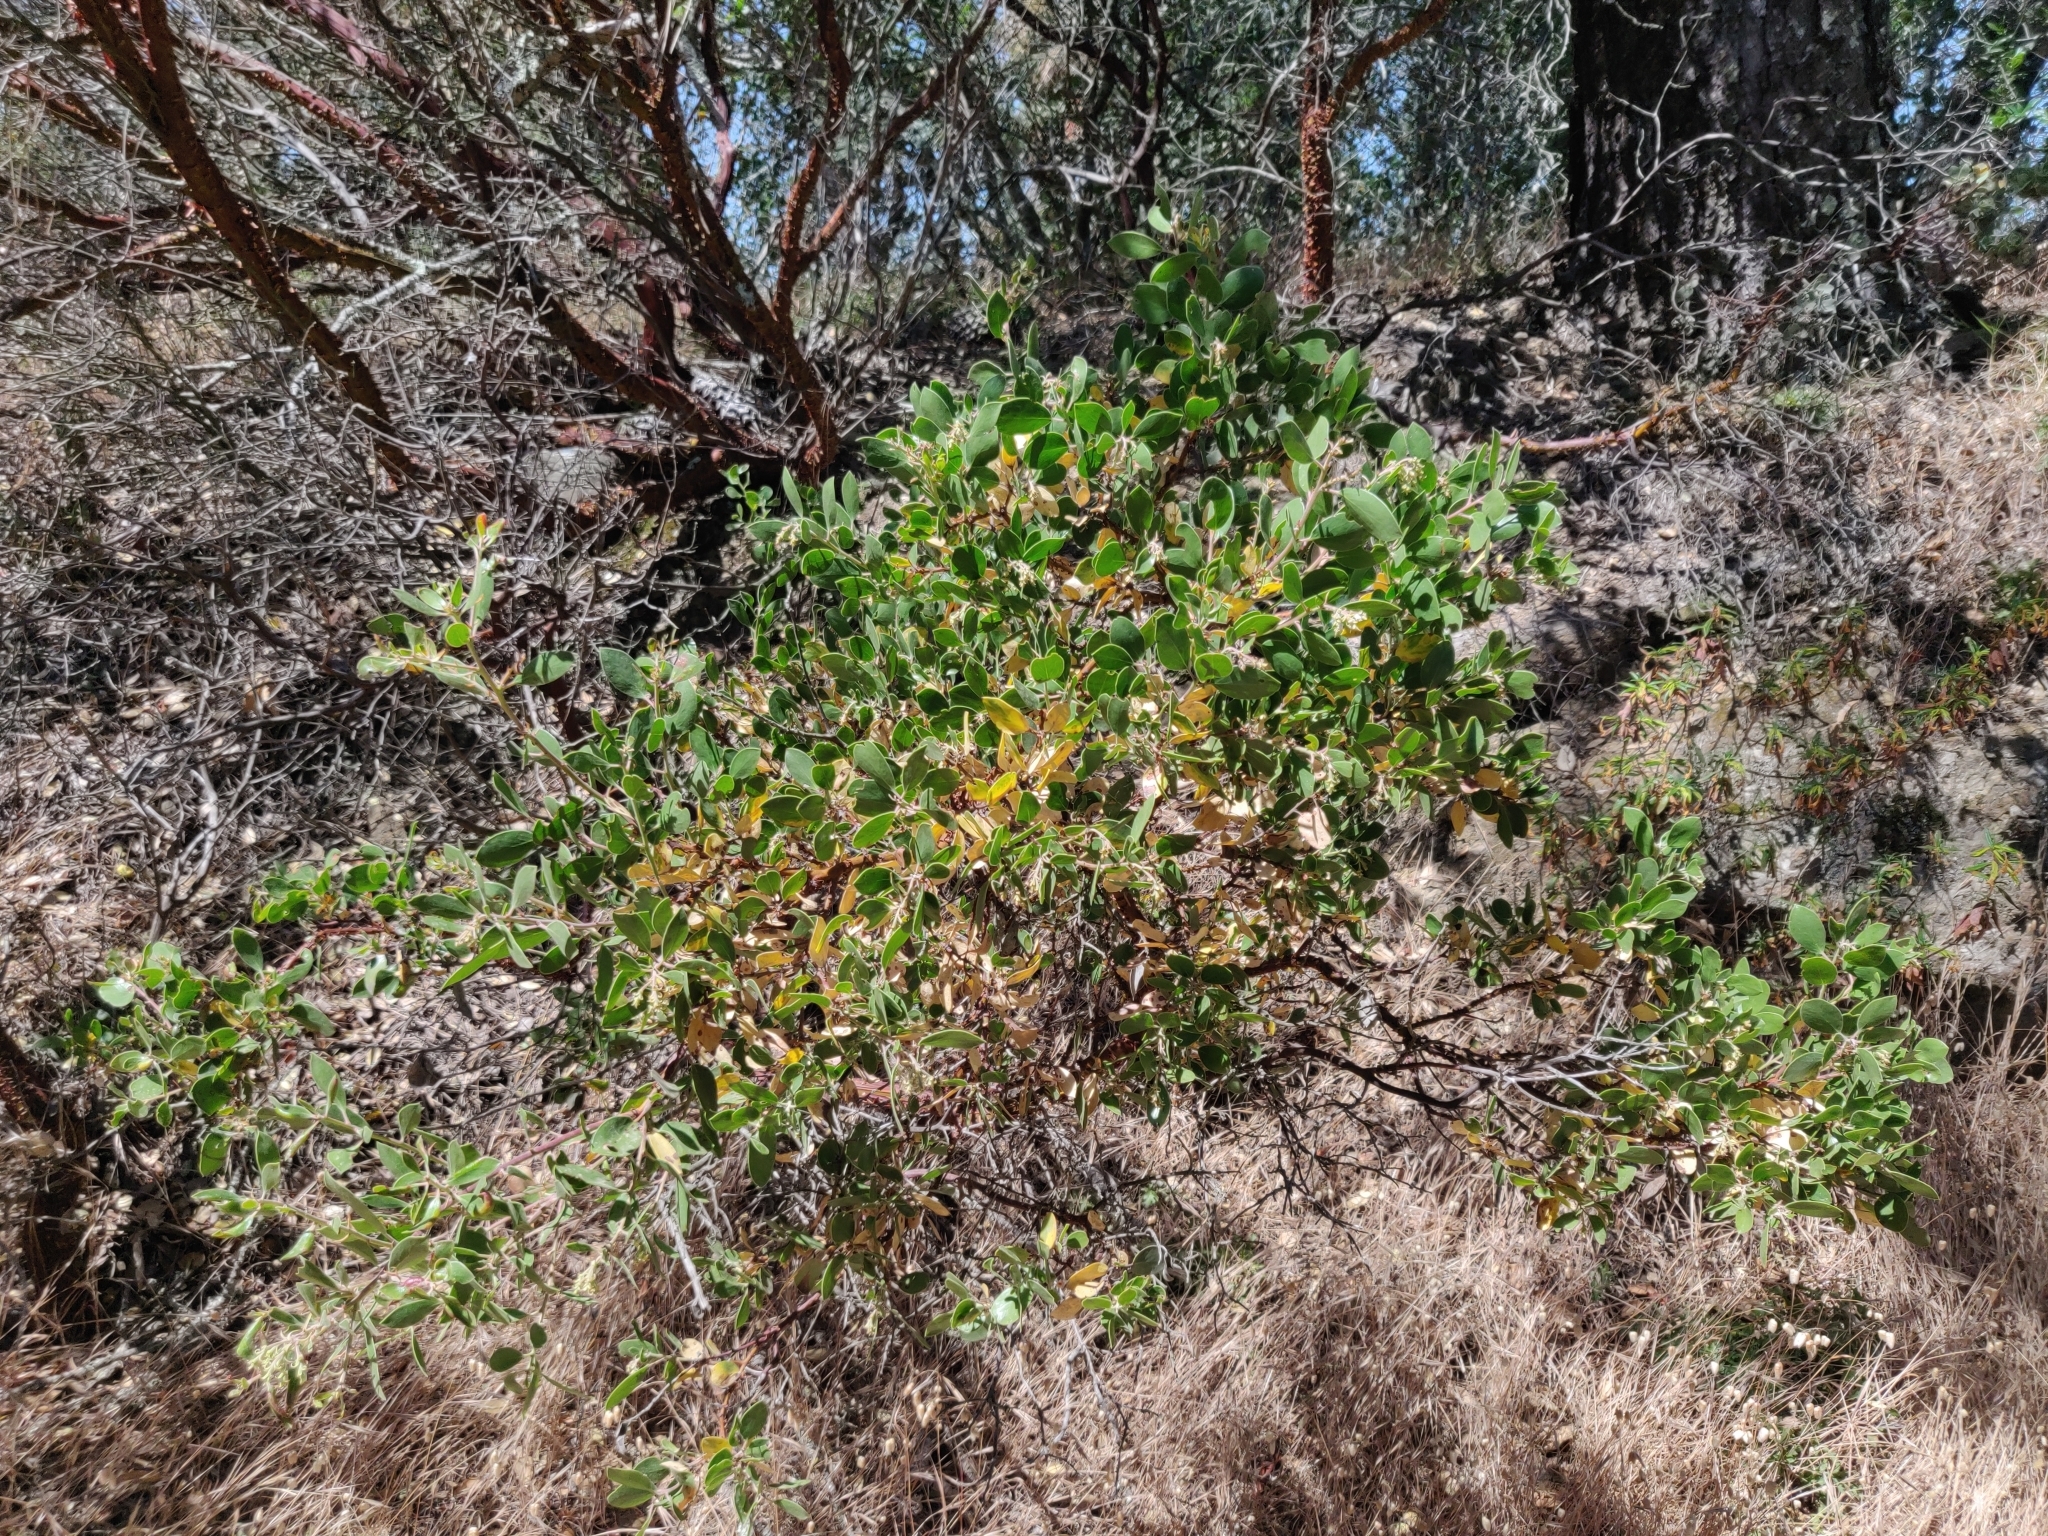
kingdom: Plantae
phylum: Tracheophyta
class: Magnoliopsida
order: Ericales
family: Ericaceae
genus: Arctostaphylos
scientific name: Arctostaphylos manzanita
